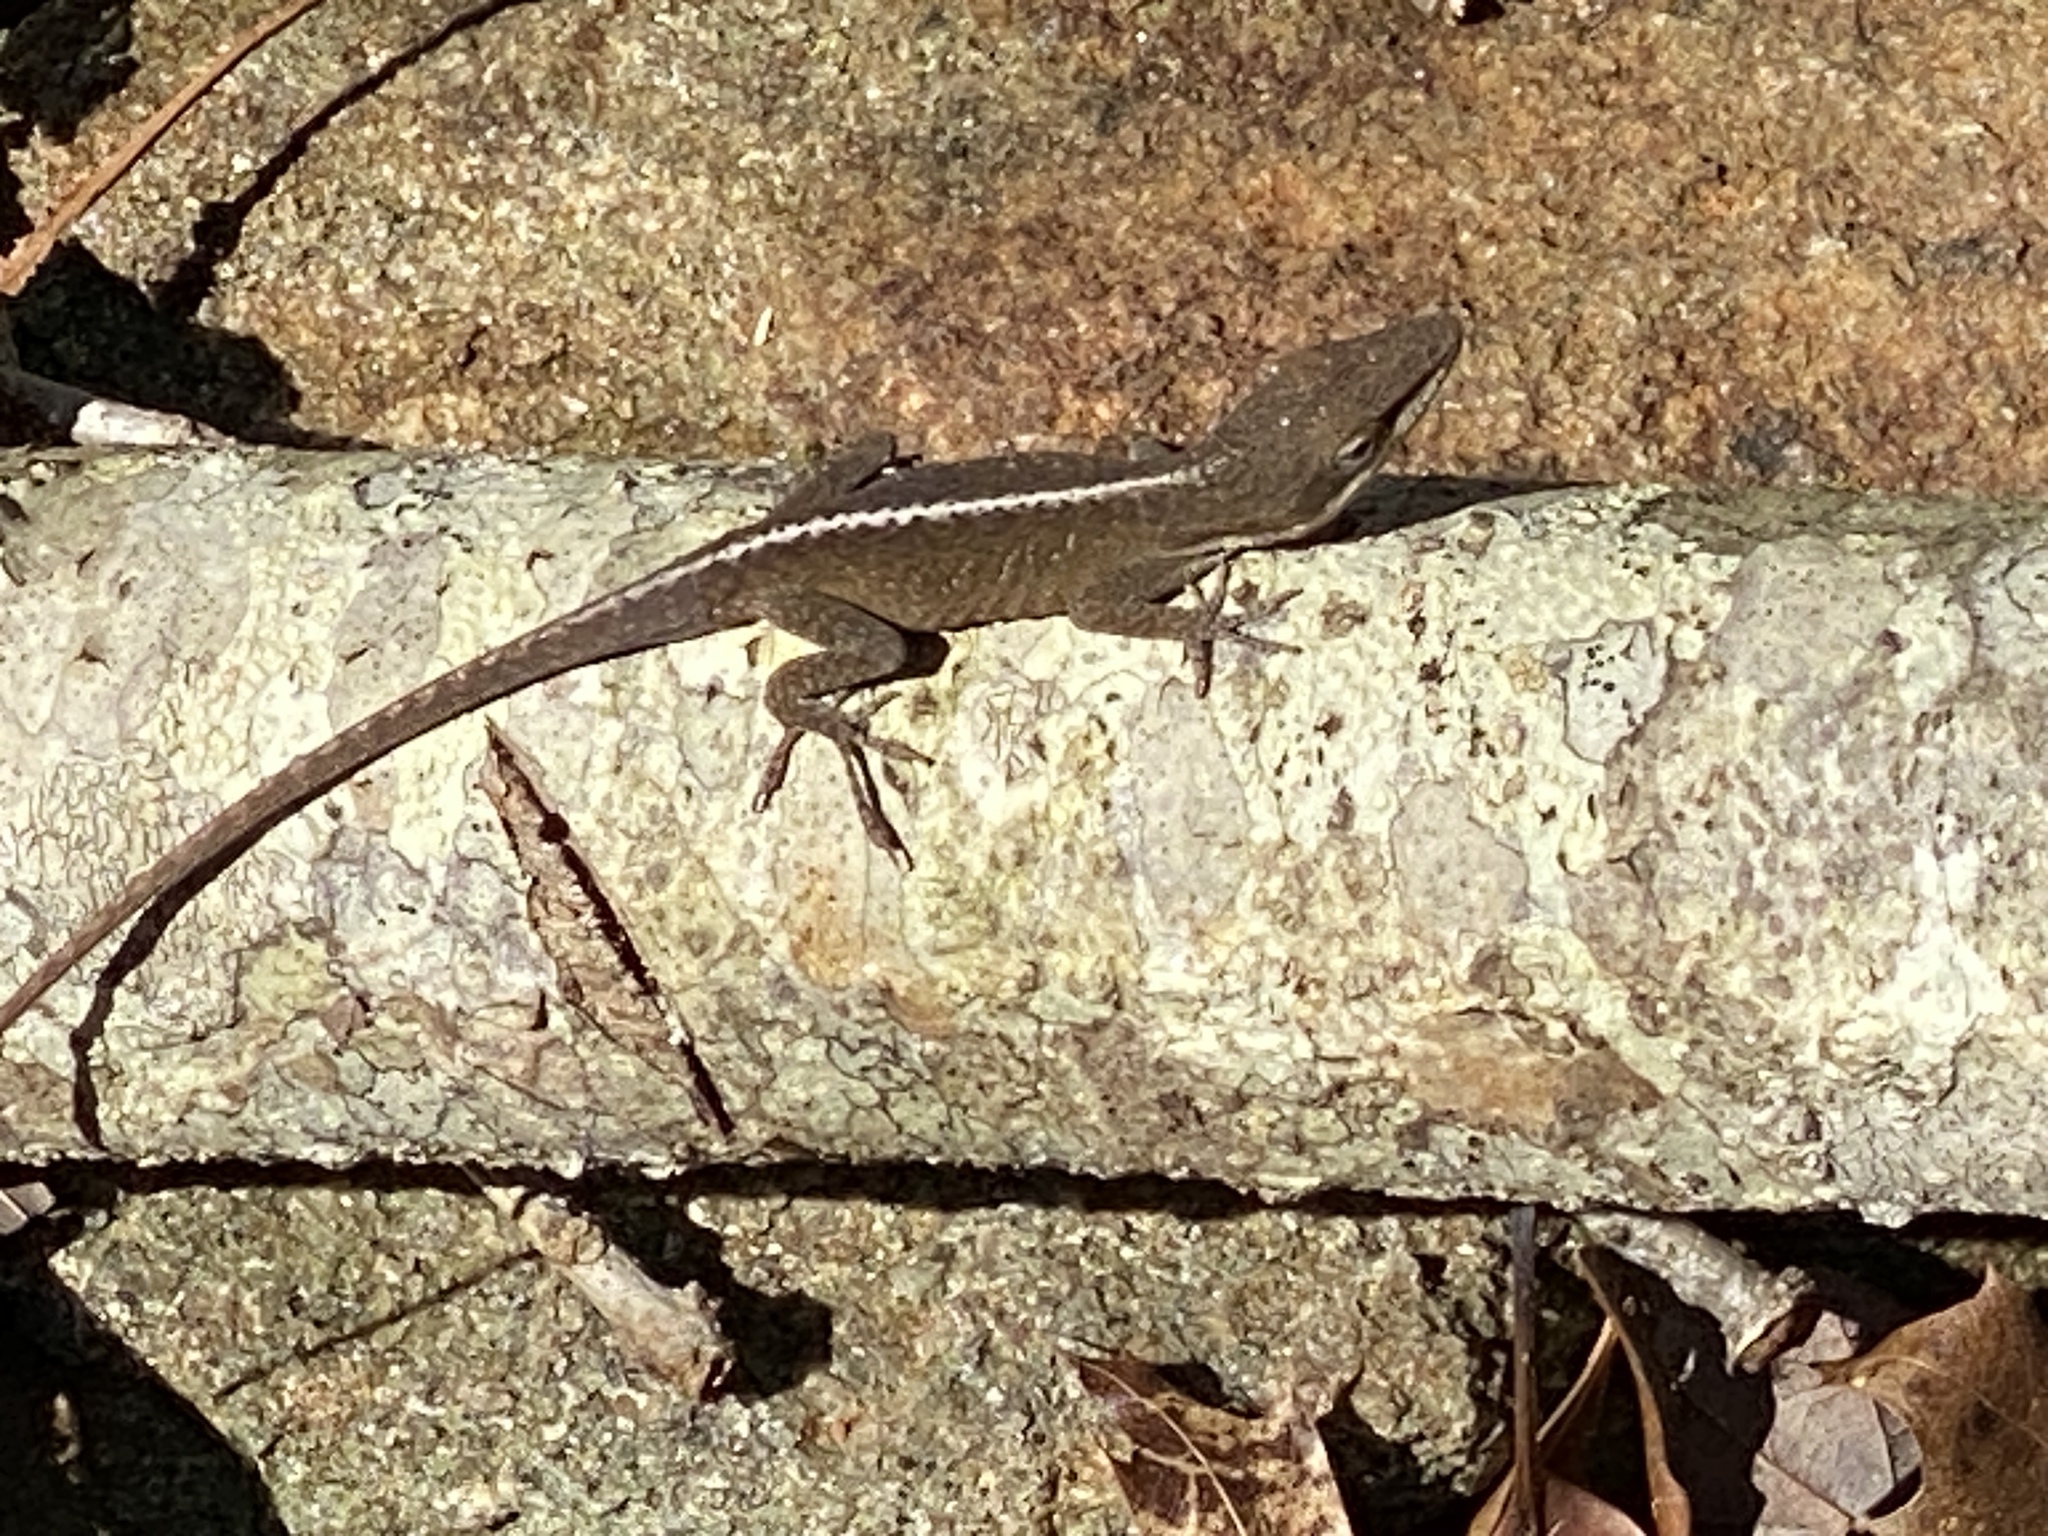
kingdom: Animalia
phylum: Chordata
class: Squamata
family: Dactyloidae
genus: Anolis
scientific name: Anolis carolinensis
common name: Green anole
